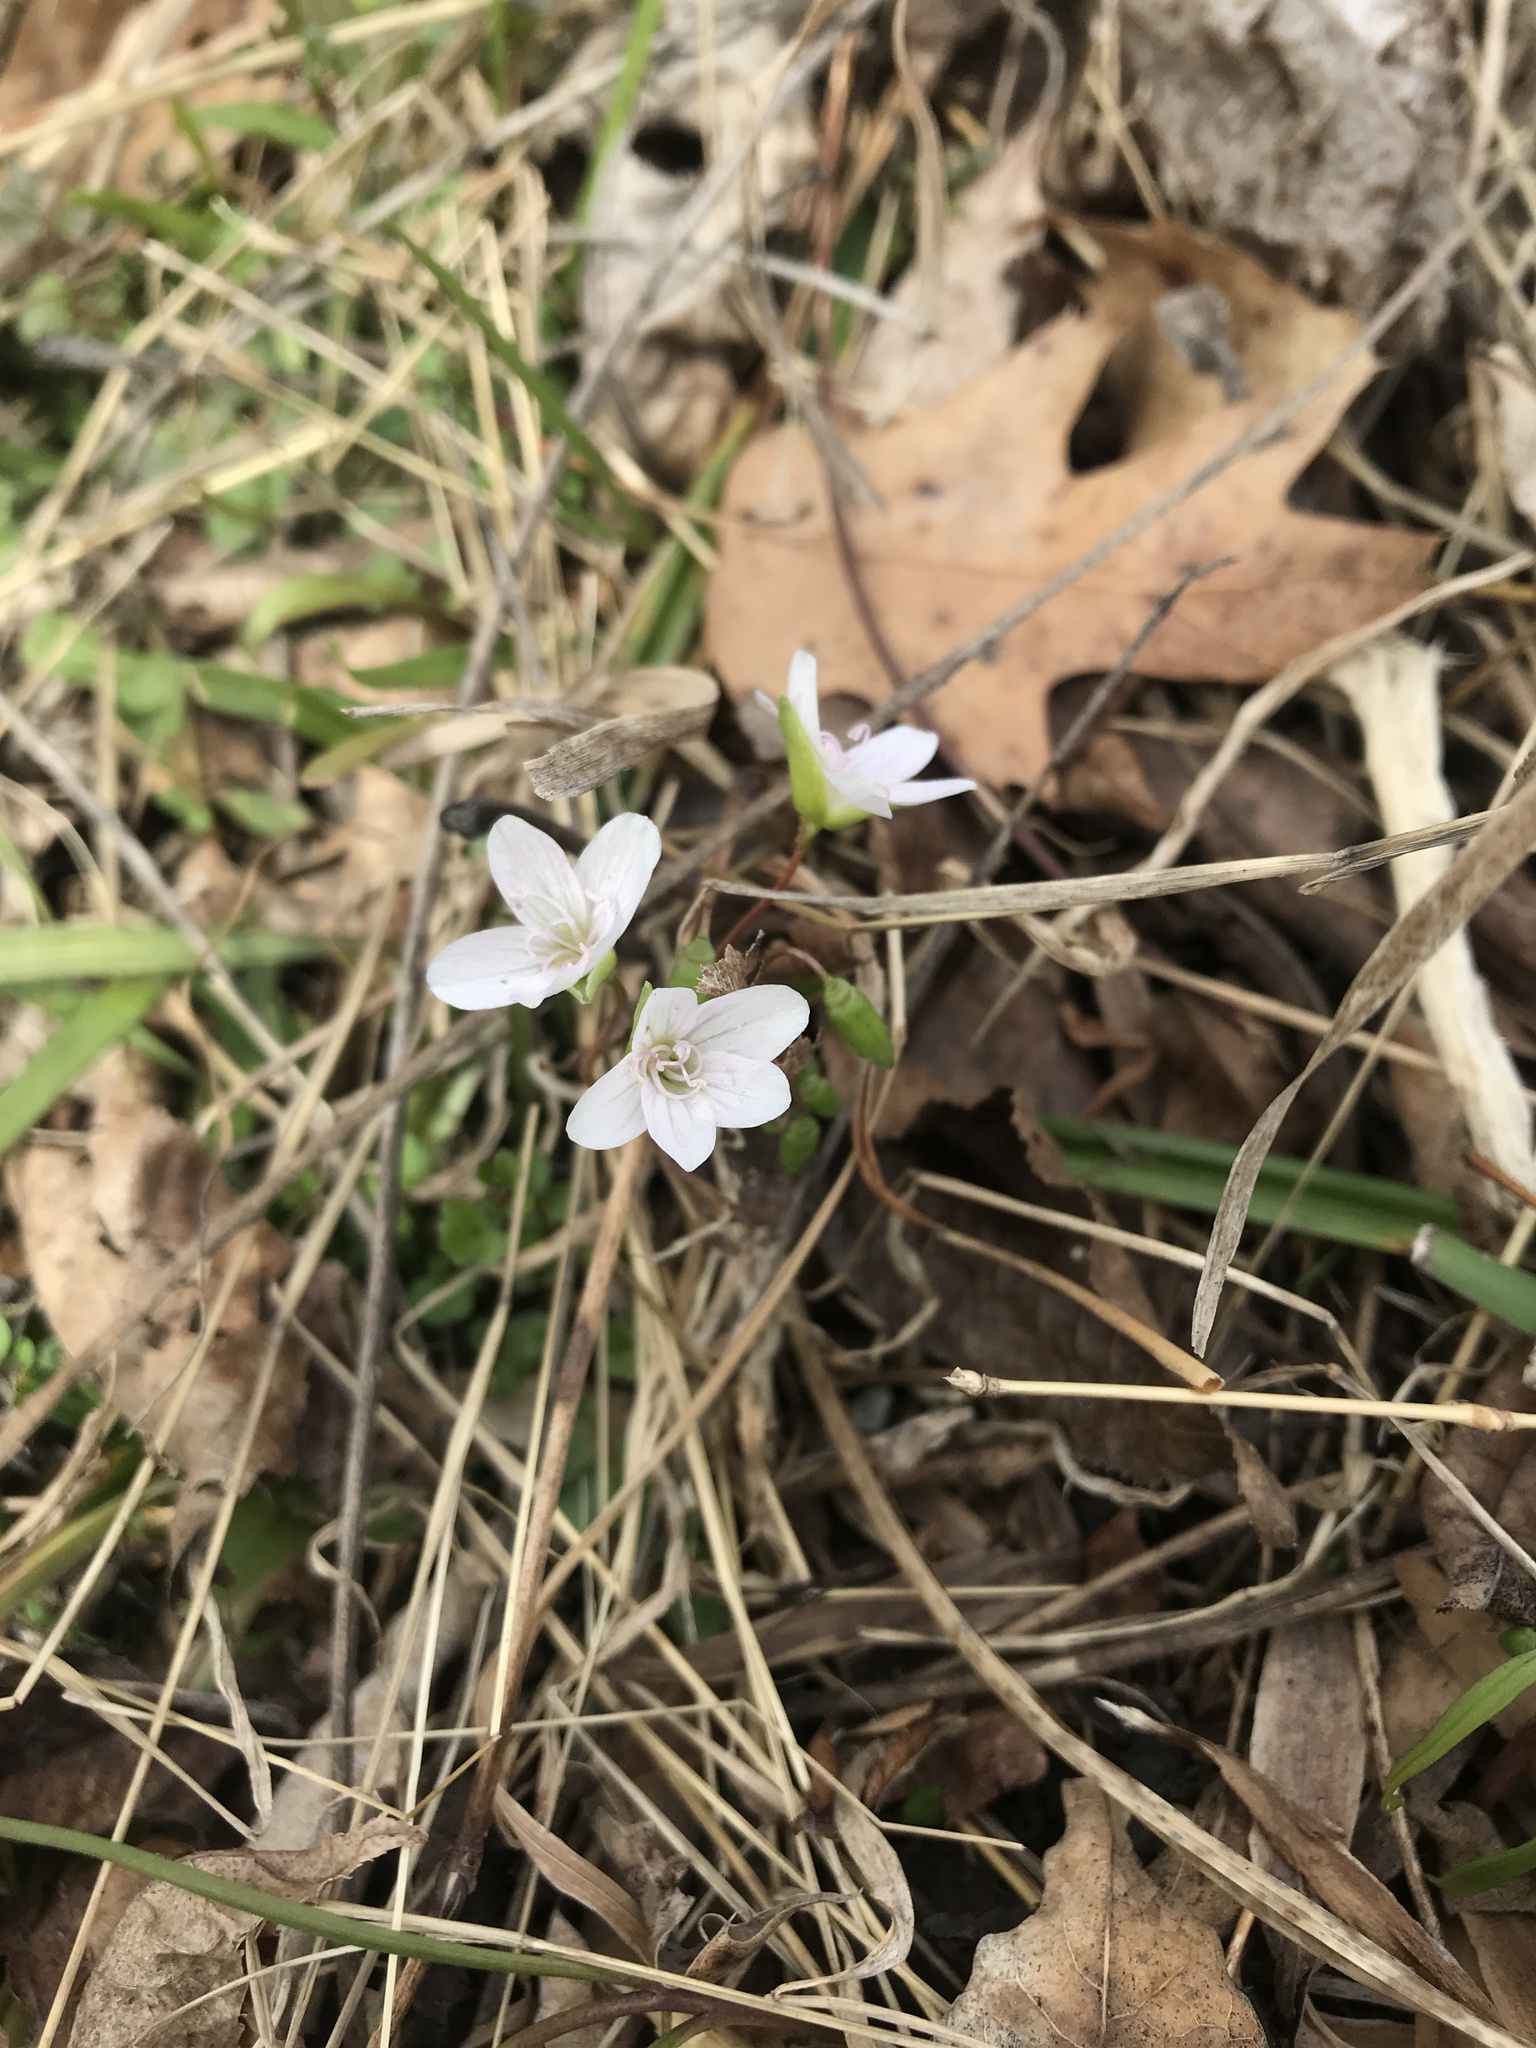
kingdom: Plantae
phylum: Tracheophyta
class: Magnoliopsida
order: Caryophyllales
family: Montiaceae
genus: Claytonia
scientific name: Claytonia virginica
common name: Virginia springbeauty
